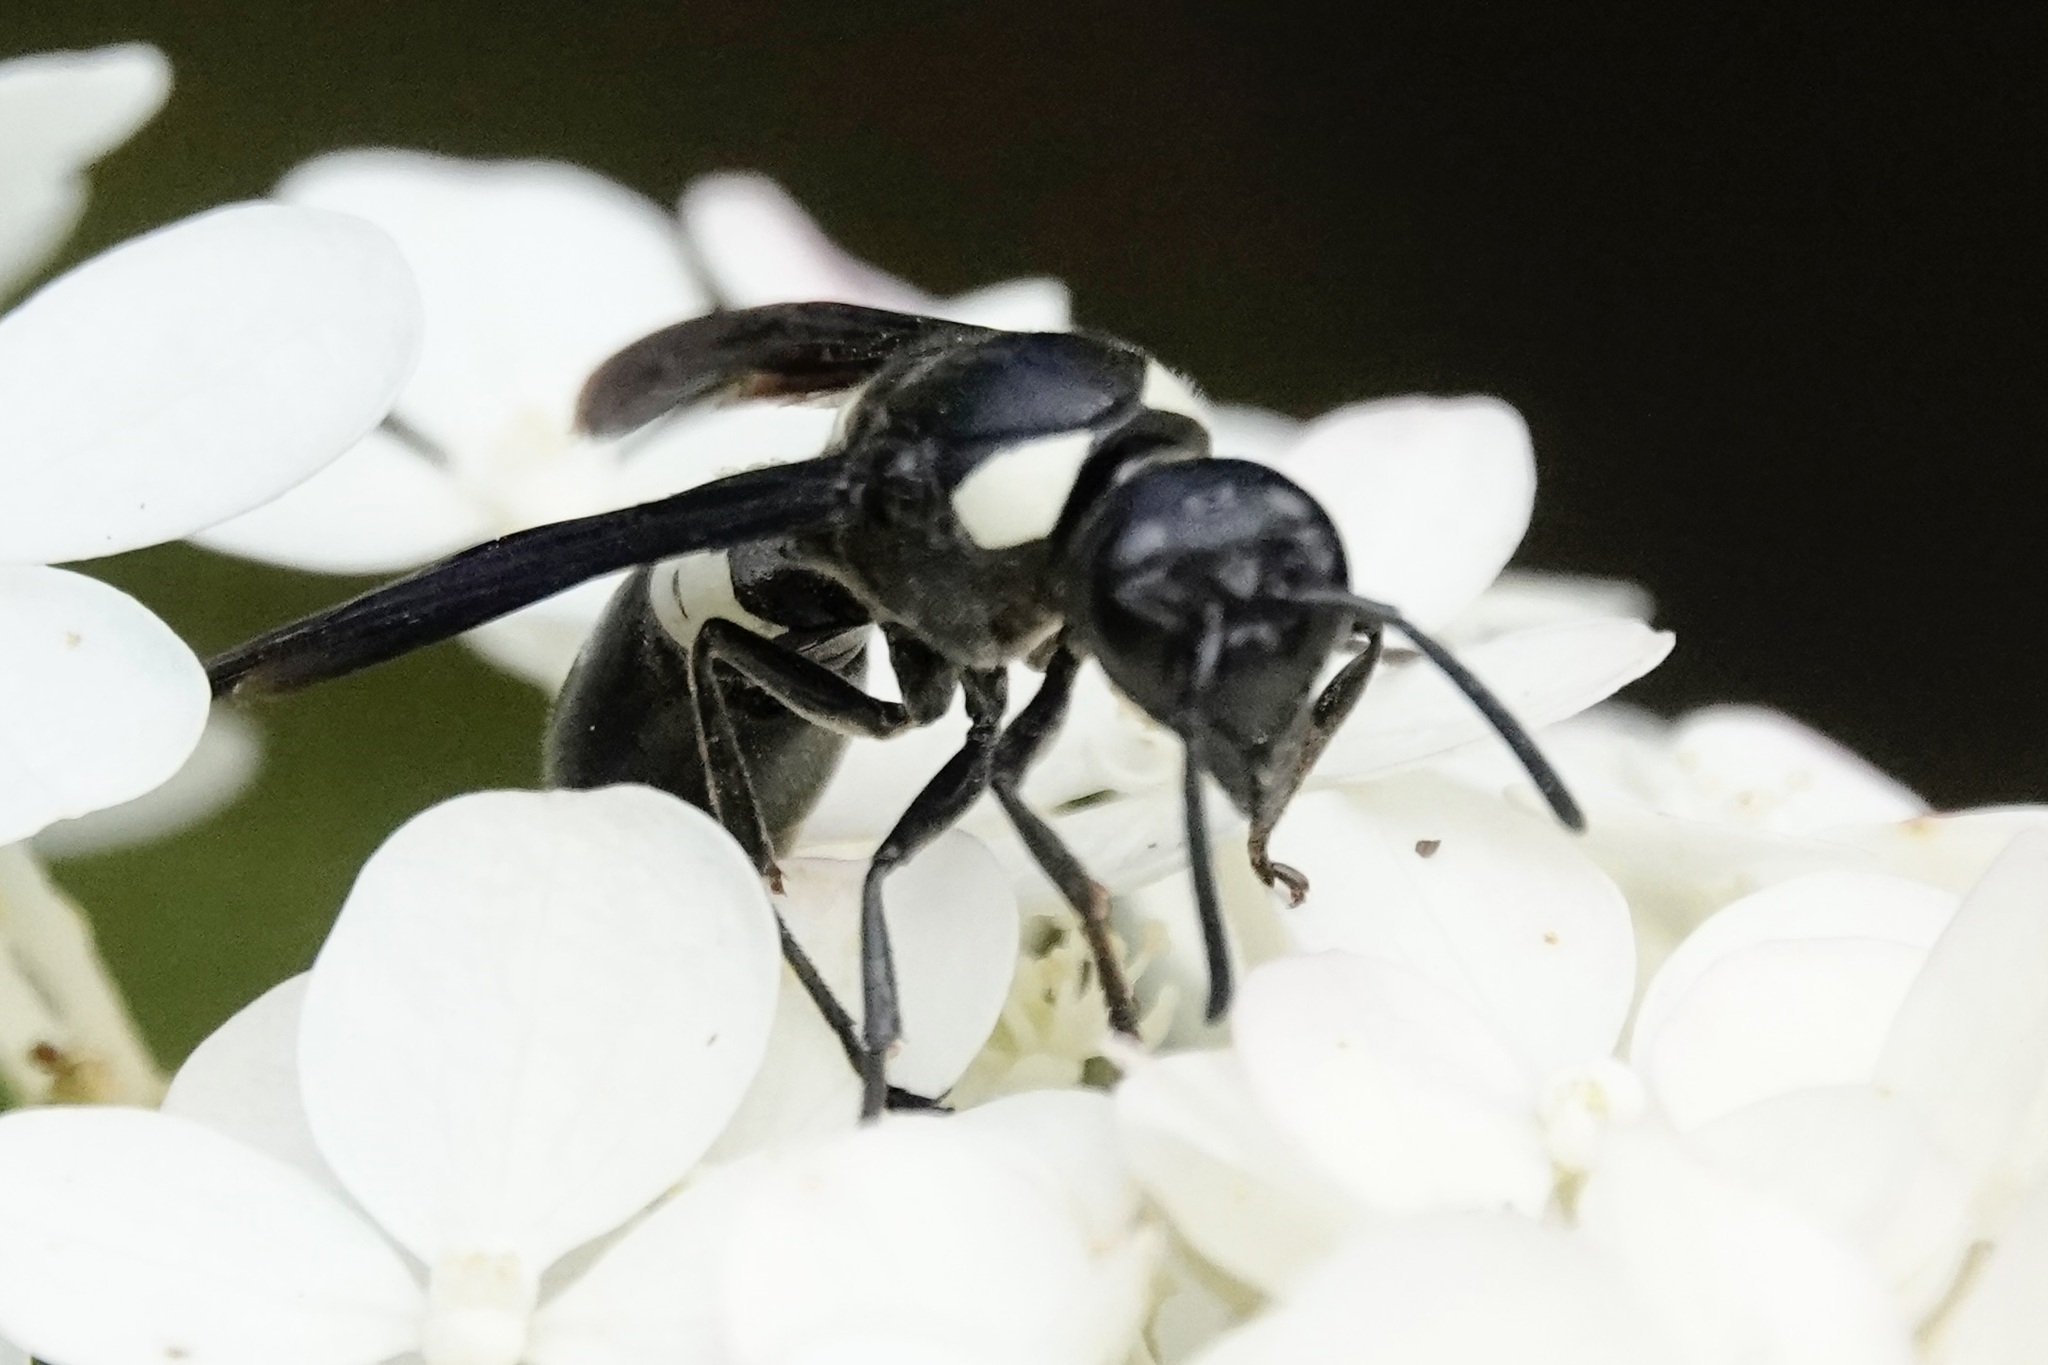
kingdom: Animalia
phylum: Arthropoda
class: Insecta
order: Hymenoptera
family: Eumenidae
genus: Monobia
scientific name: Monobia quadridens
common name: Four-toothed mason wasp
